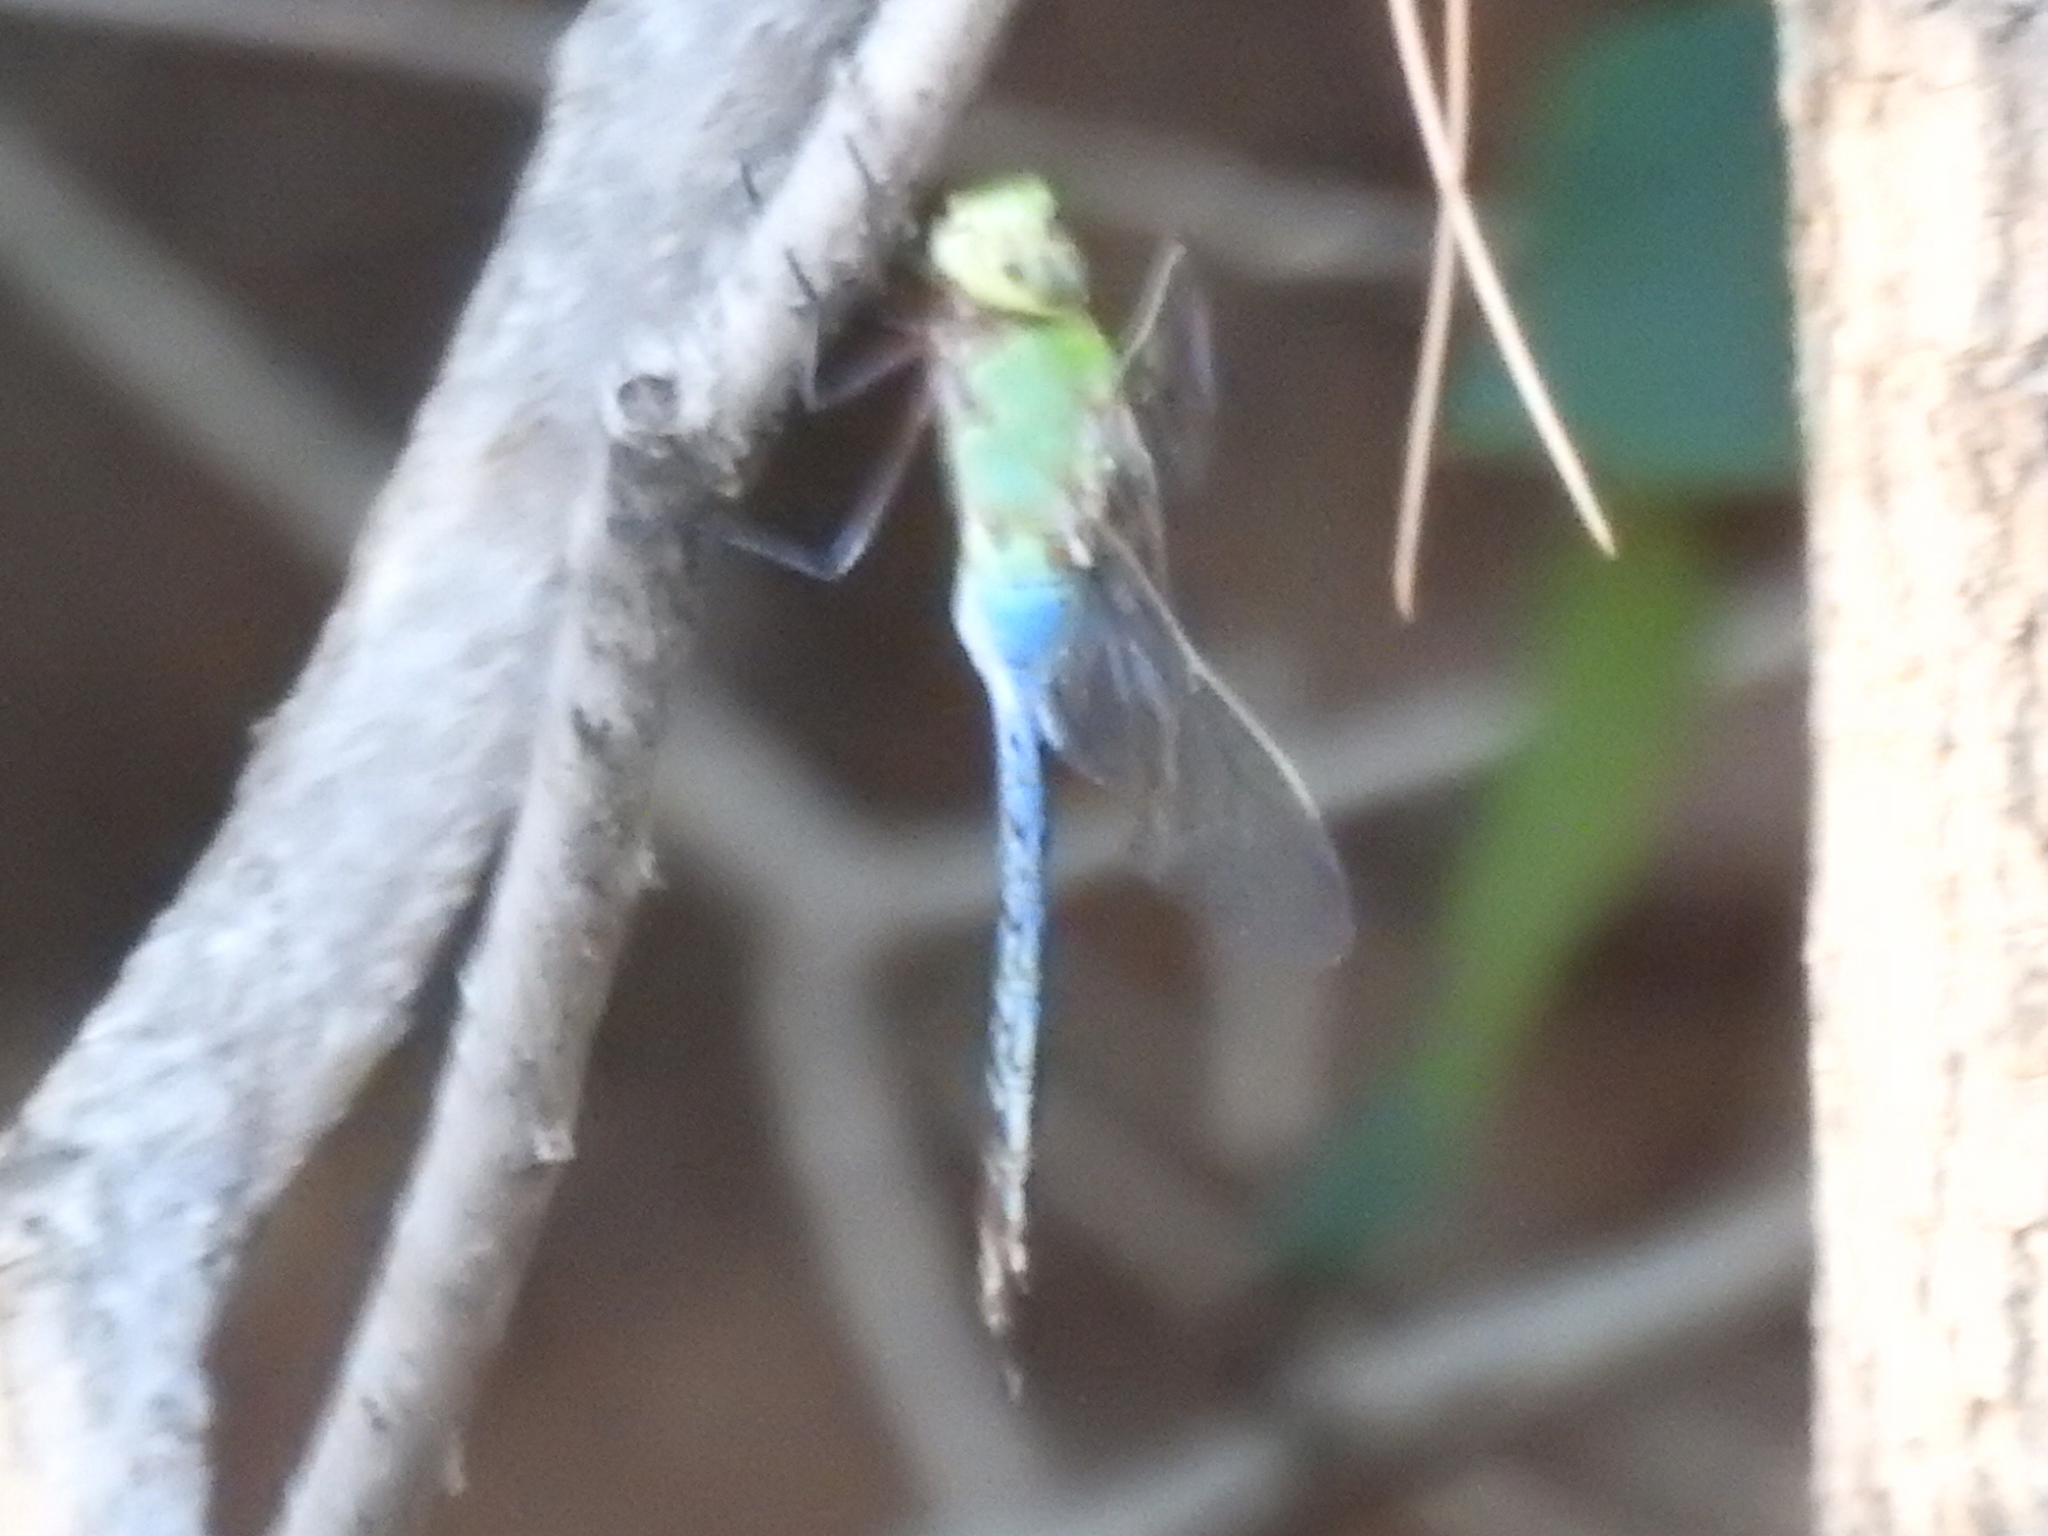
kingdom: Animalia
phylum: Arthropoda
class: Insecta
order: Odonata
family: Aeshnidae
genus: Anax
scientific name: Anax junius
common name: Common green darner
